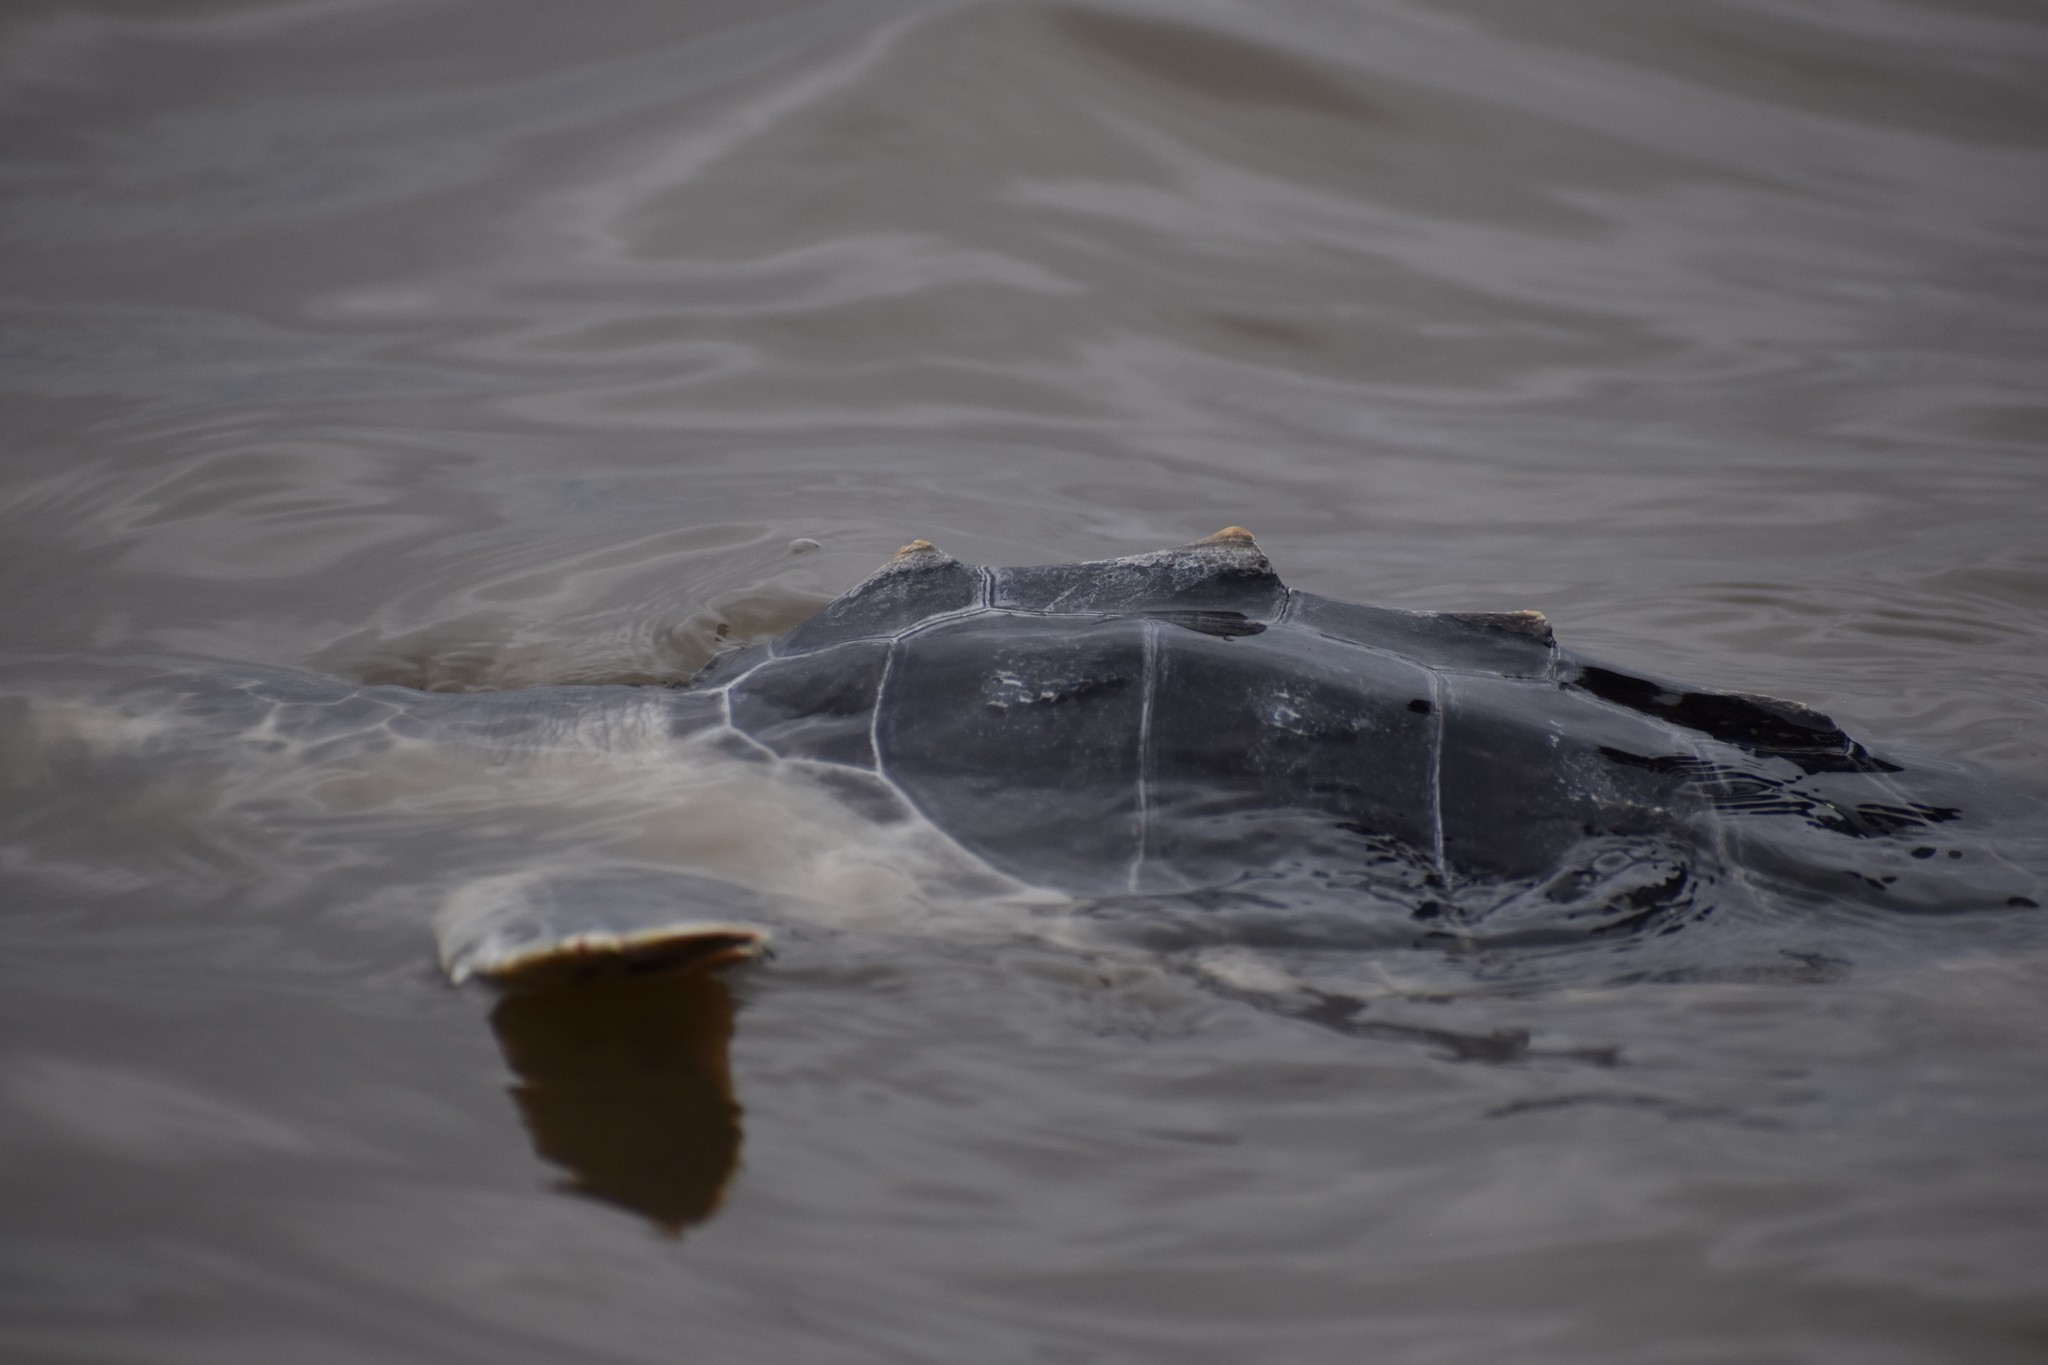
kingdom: Animalia
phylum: Chordata
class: Testudines
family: Cheloniidae
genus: Lepidochelys
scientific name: Lepidochelys kempii
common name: Kemp's ridley turtle
